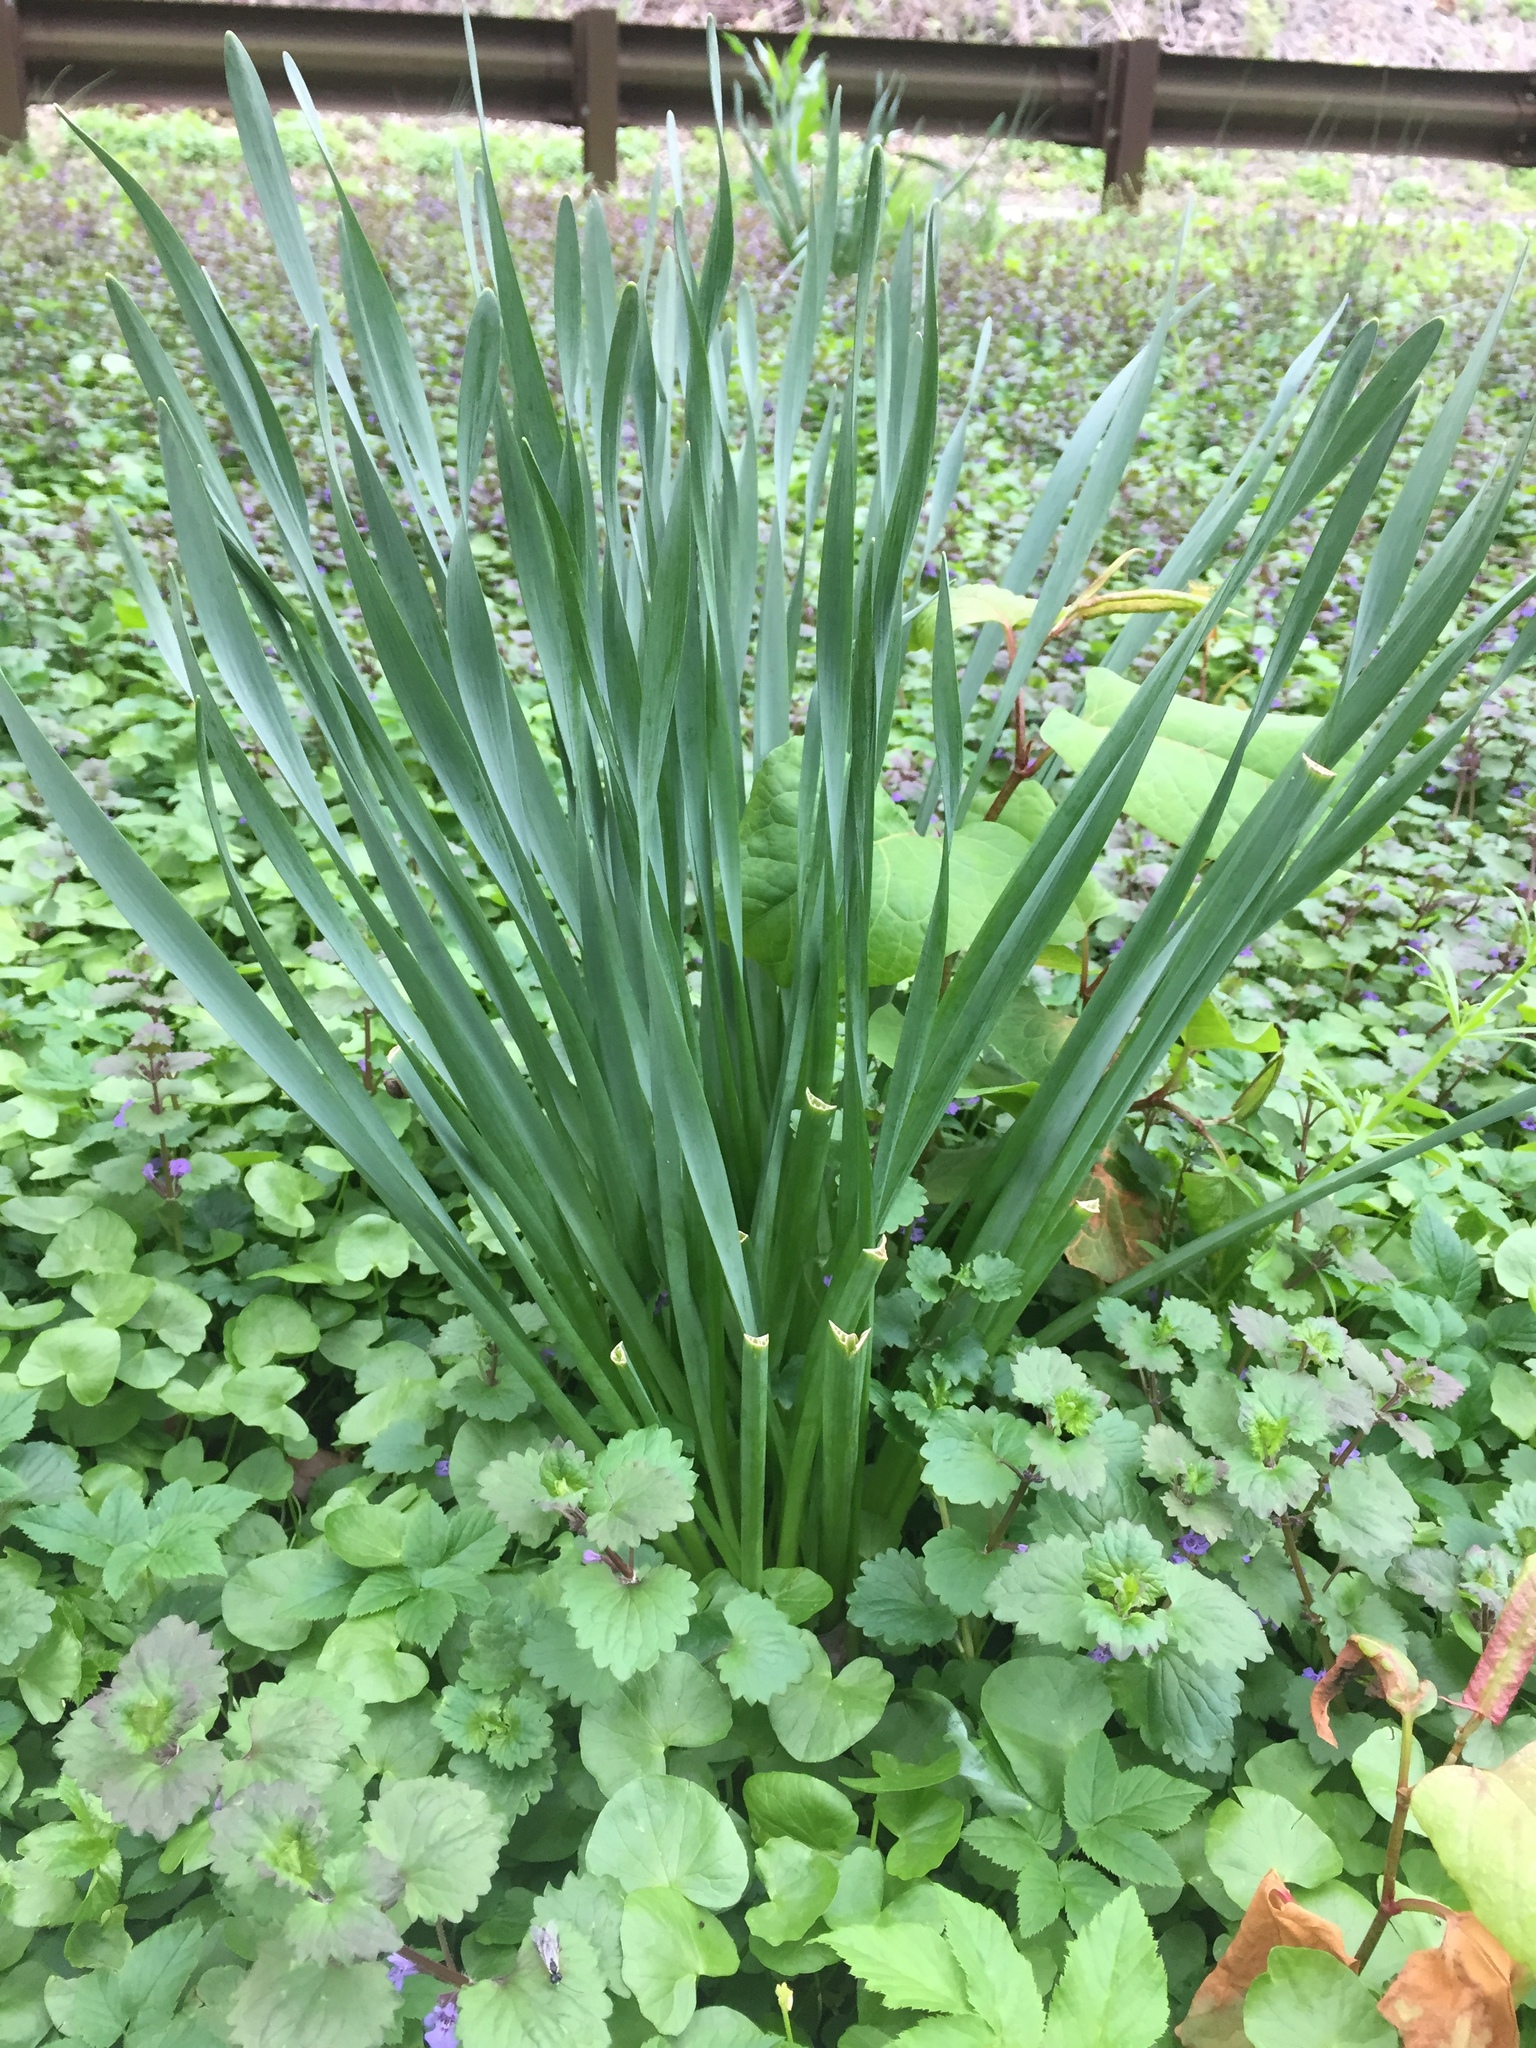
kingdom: Plantae
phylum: Tracheophyta
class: Liliopsida
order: Asparagales
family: Amaryllidaceae
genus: Narcissus
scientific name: Narcissus
